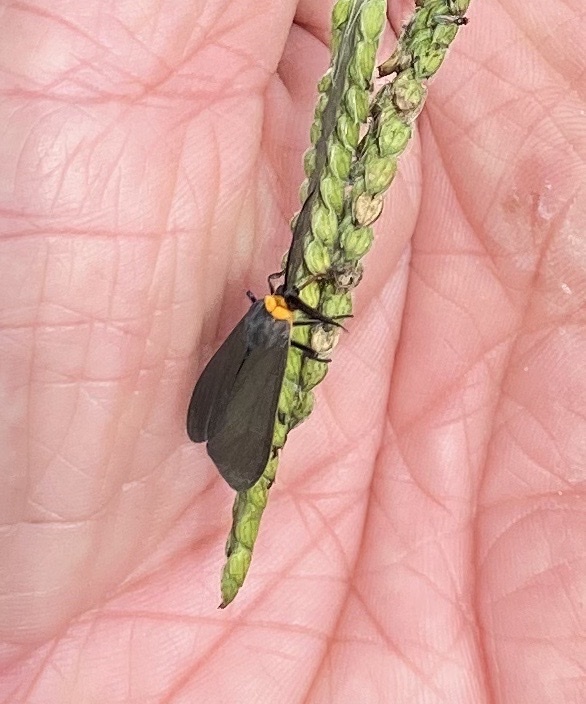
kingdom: Animalia
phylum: Arthropoda
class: Insecta
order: Lepidoptera
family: Erebidae
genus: Cisseps
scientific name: Cisseps fulvicollis
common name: Yellow-collared scape moth
